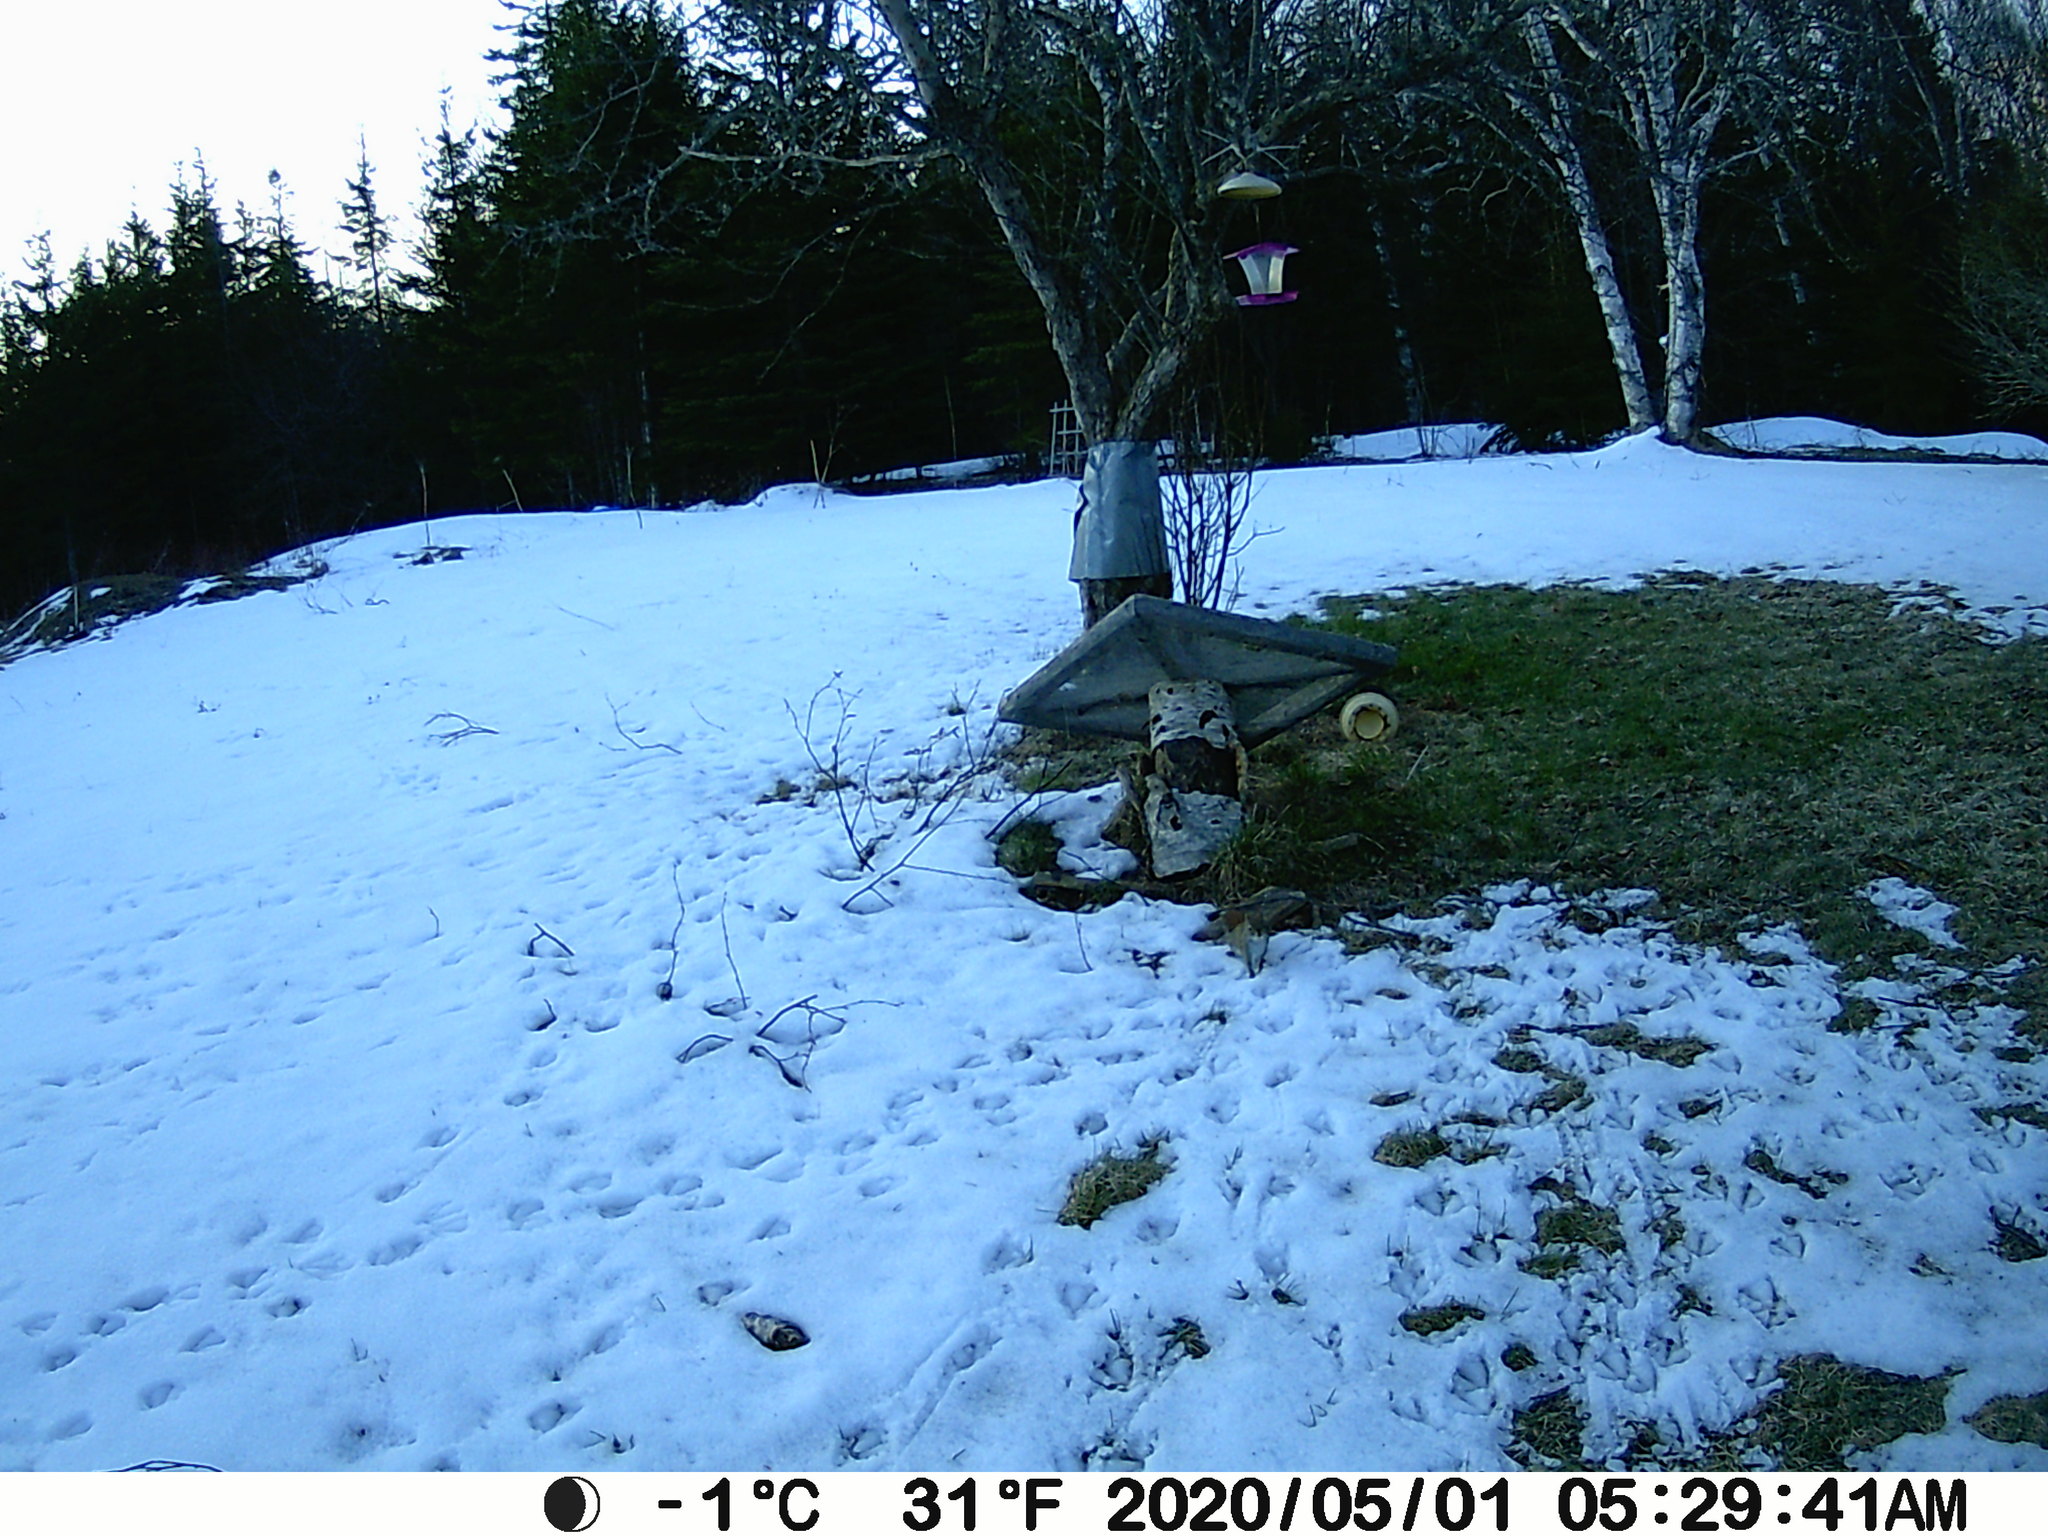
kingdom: Animalia
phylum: Chordata
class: Mammalia
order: Rodentia
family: Sciuridae
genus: Tamiasciurus
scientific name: Tamiasciurus hudsonicus
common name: Red squirrel
